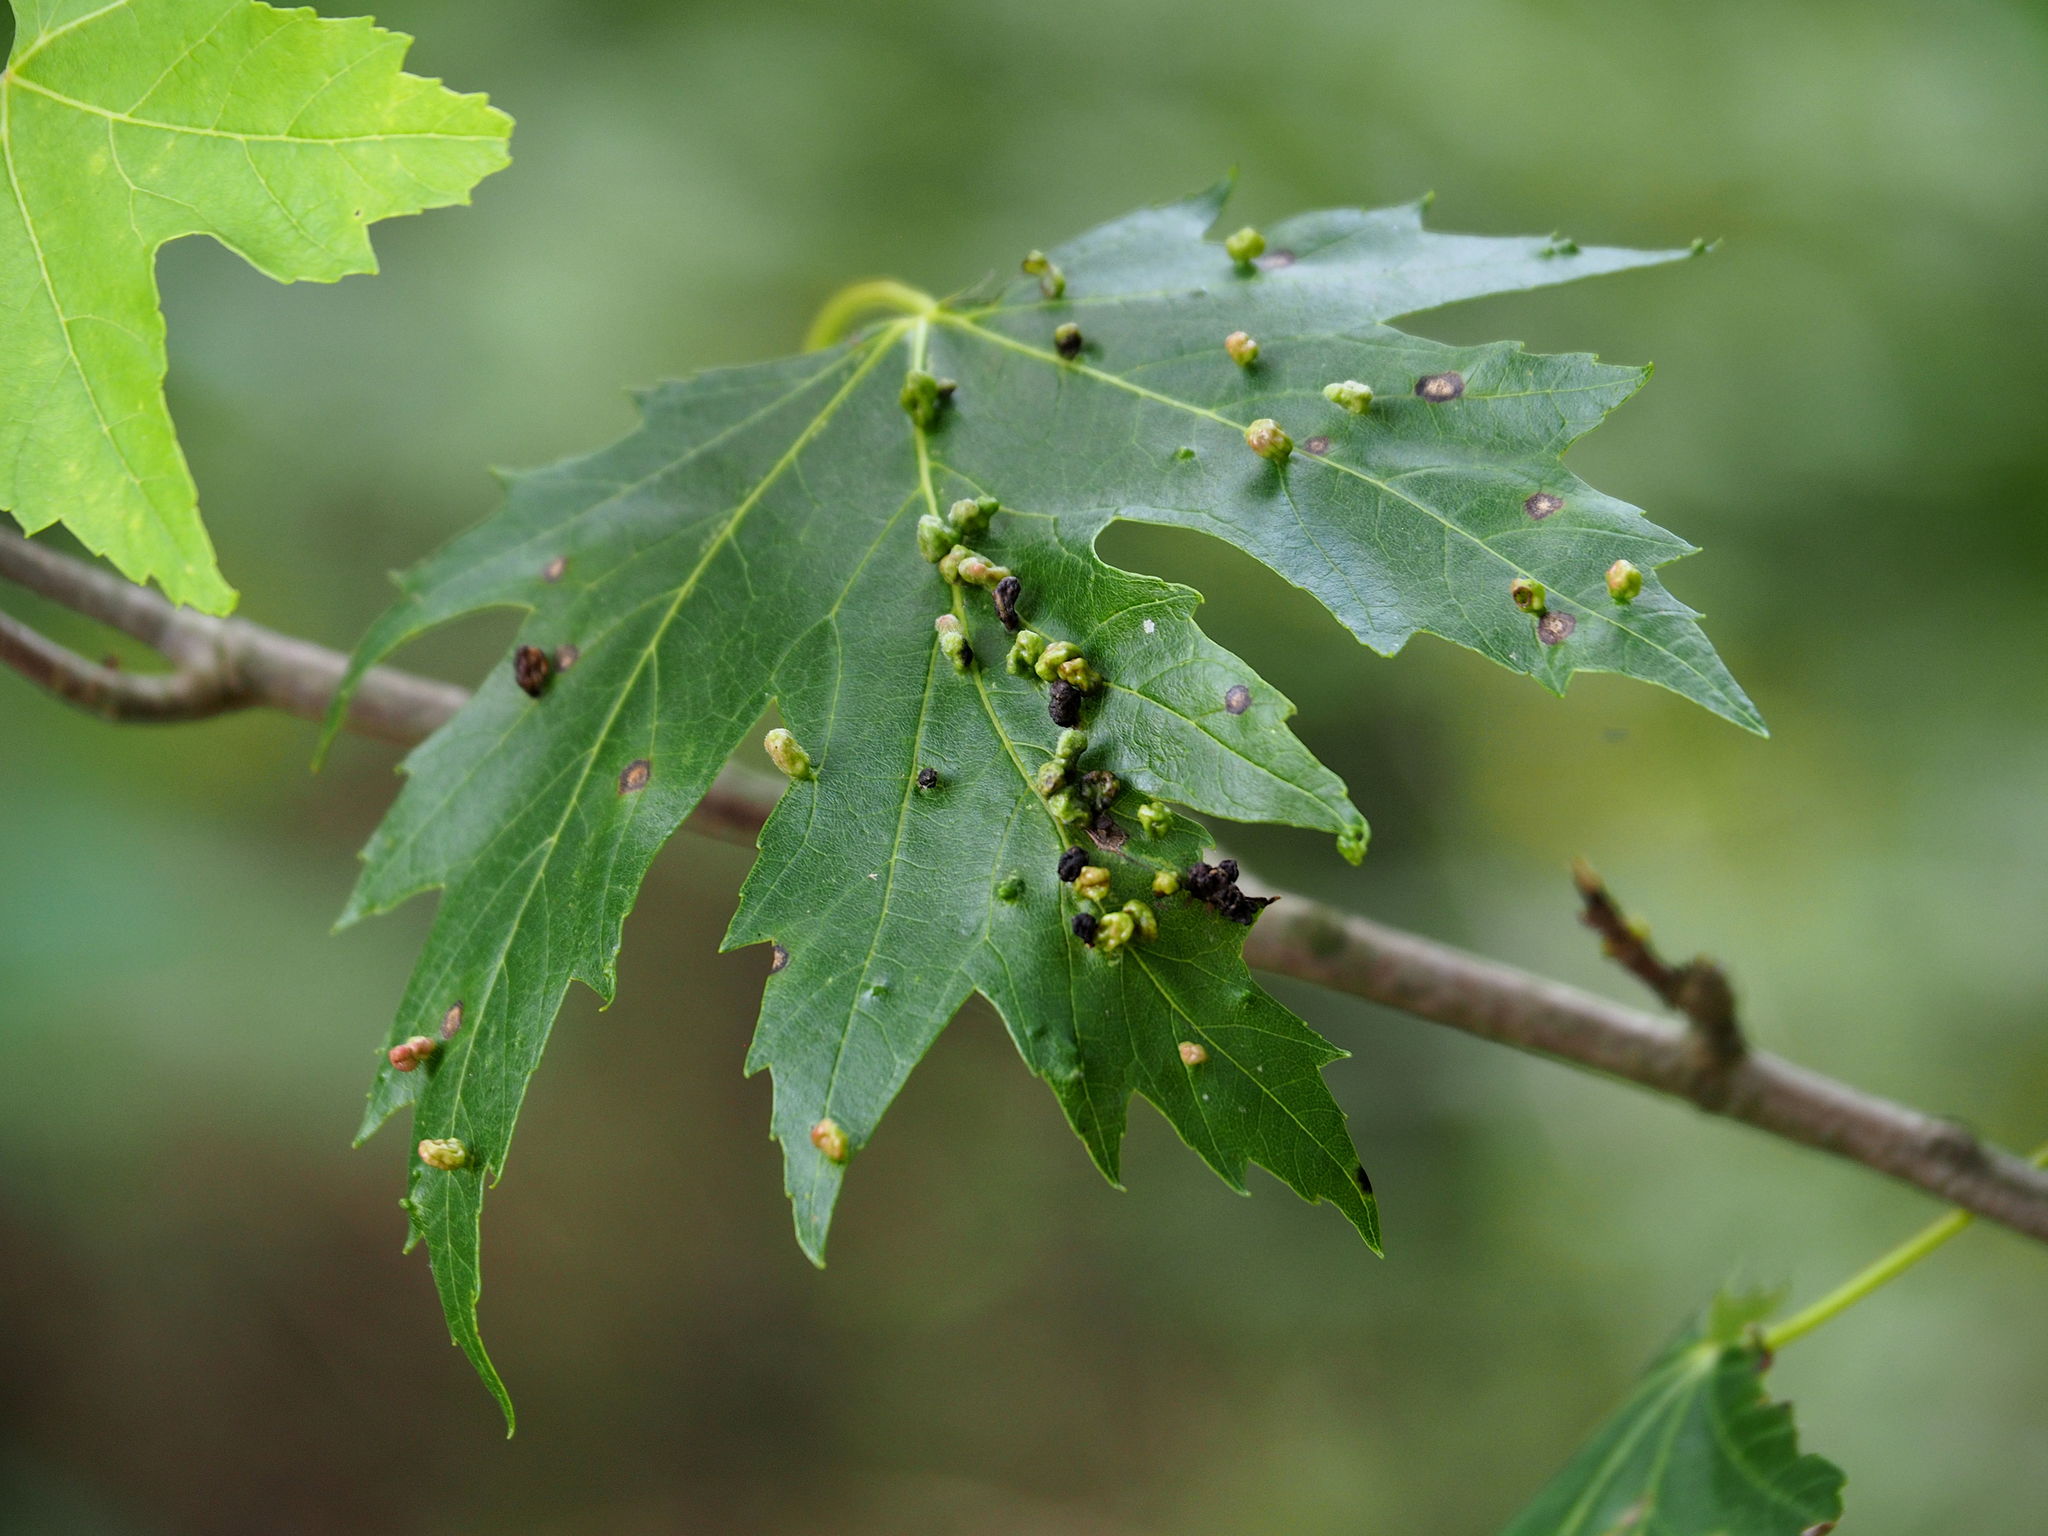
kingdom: Animalia
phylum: Arthropoda
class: Arachnida
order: Trombidiformes
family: Eriophyidae
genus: Vasates
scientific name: Vasates quadripedes
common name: Maple bladder gall mite
